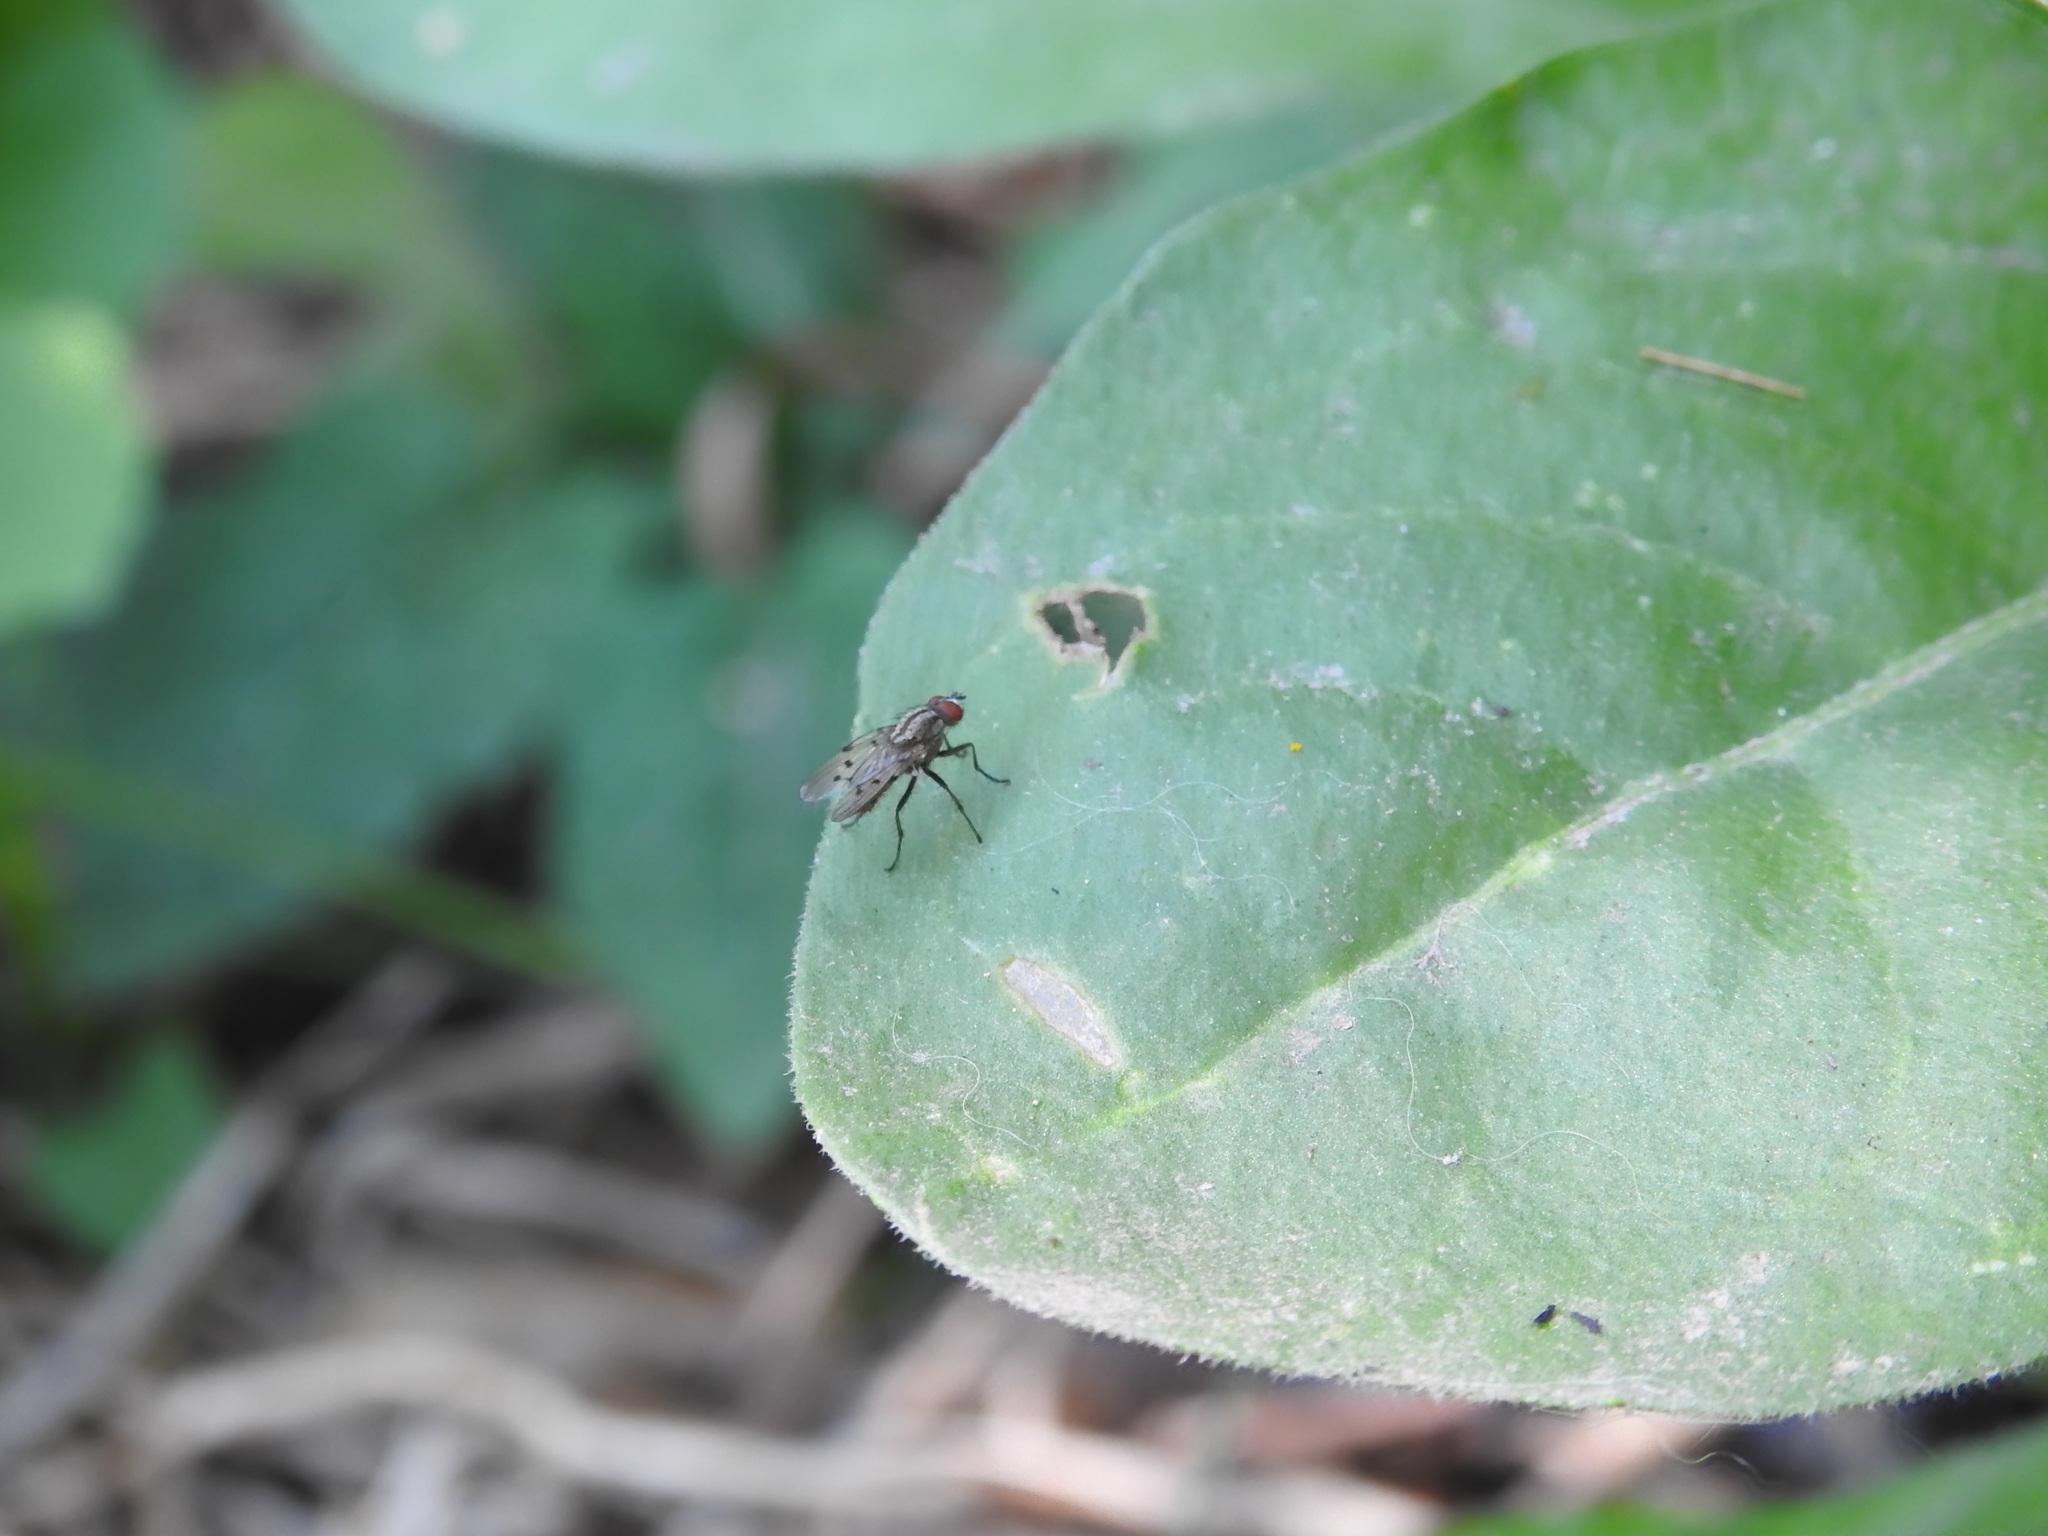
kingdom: Animalia
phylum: Arthropoda
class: Insecta
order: Diptera
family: Anthomyiidae
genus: Anthomyia
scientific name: Anthomyia punctipennis
